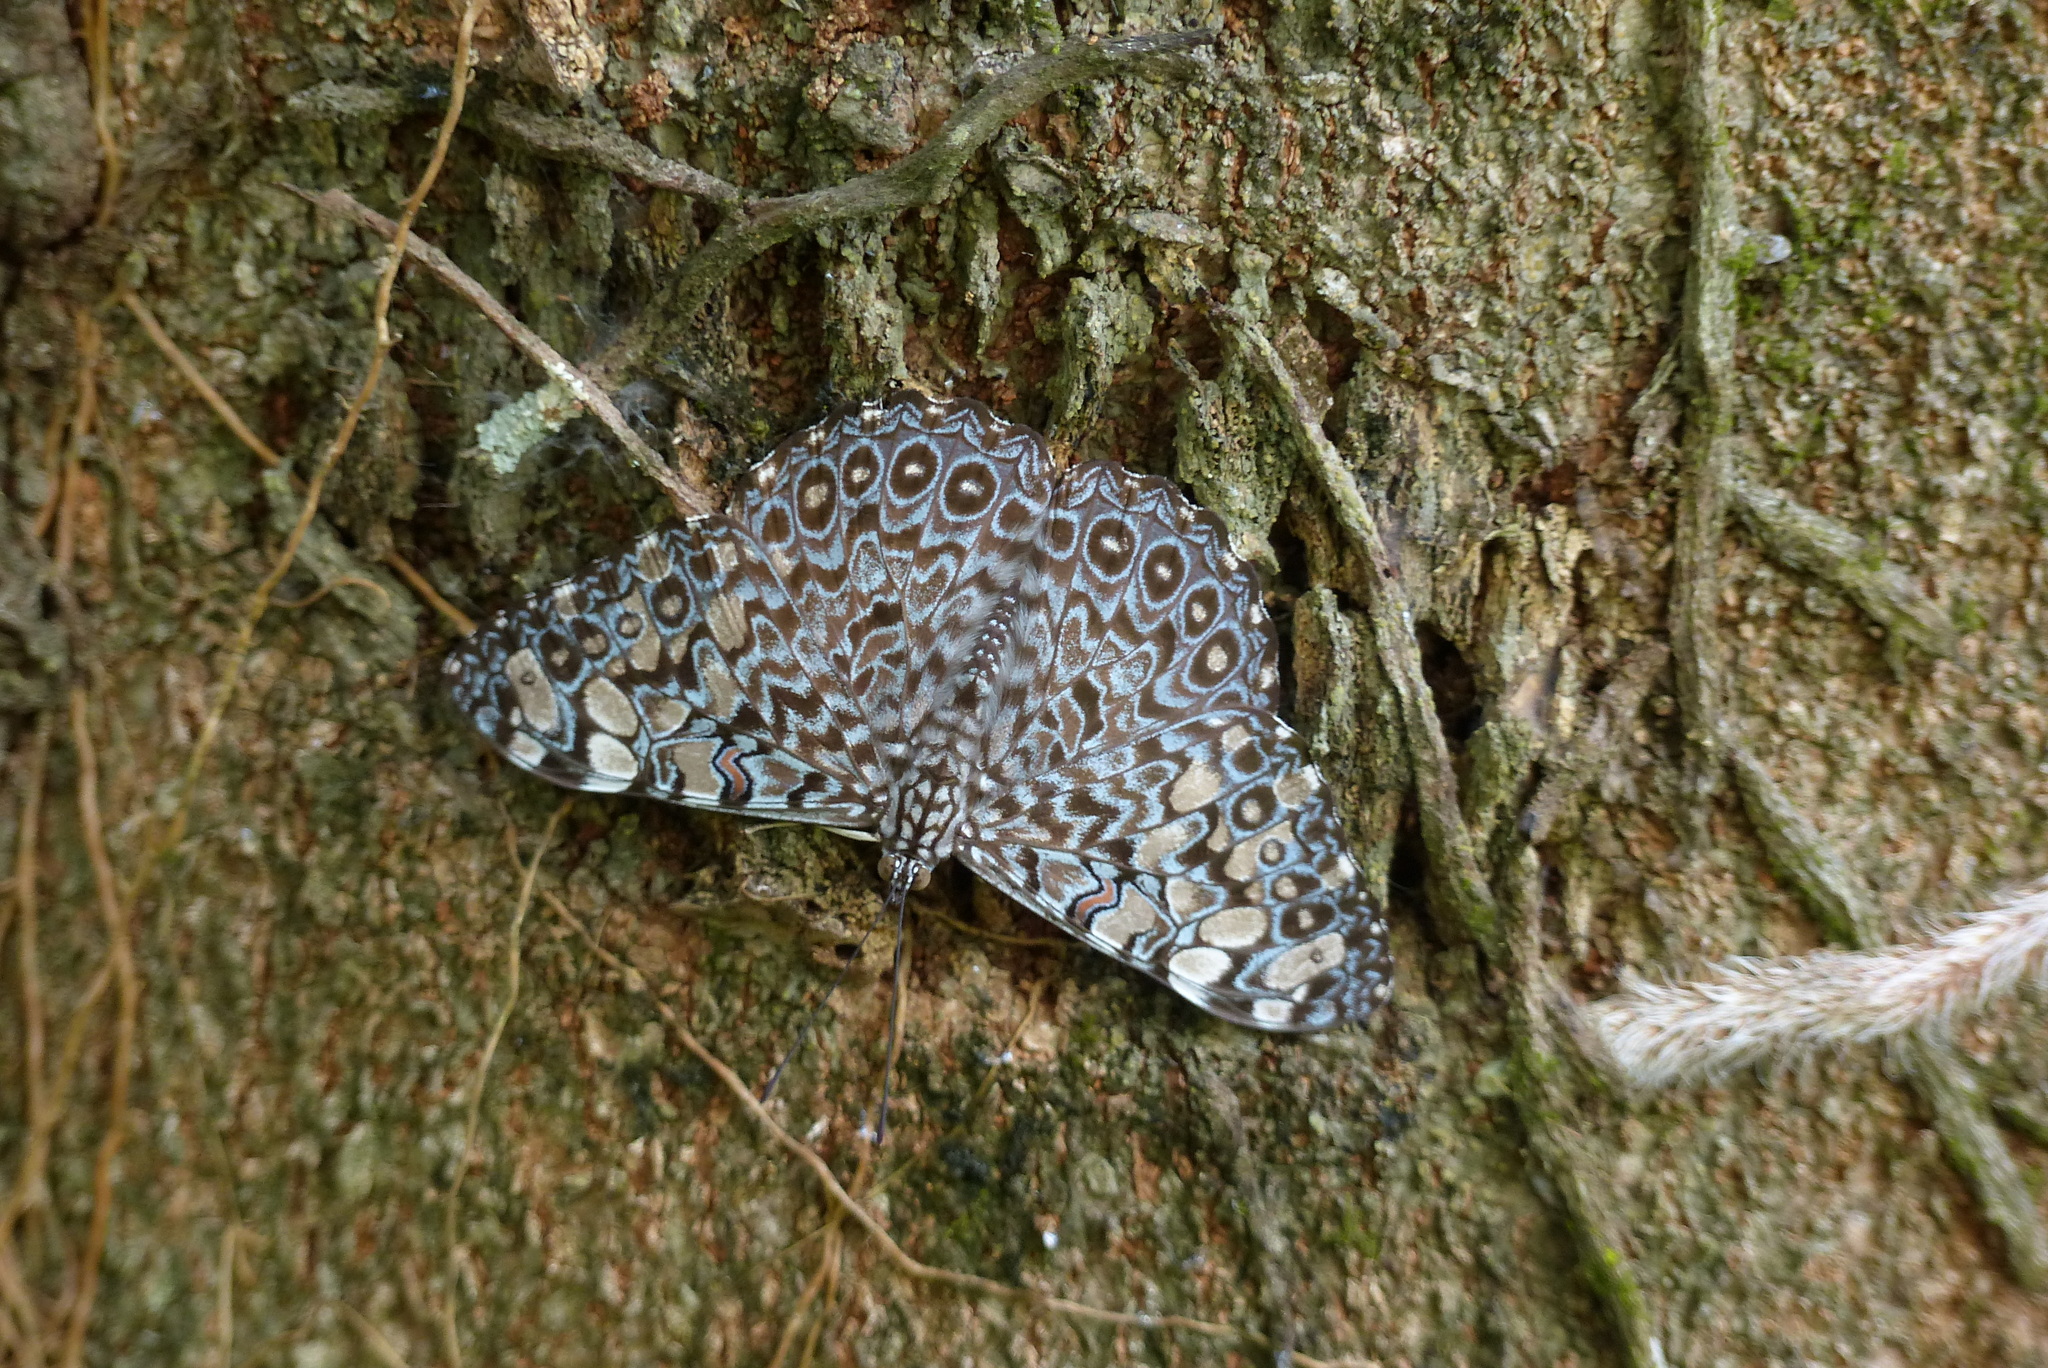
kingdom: Animalia
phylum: Arthropoda
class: Insecta
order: Lepidoptera
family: Nymphalidae
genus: Hamadryas
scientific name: Hamadryas feronia
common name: Variable cracker
